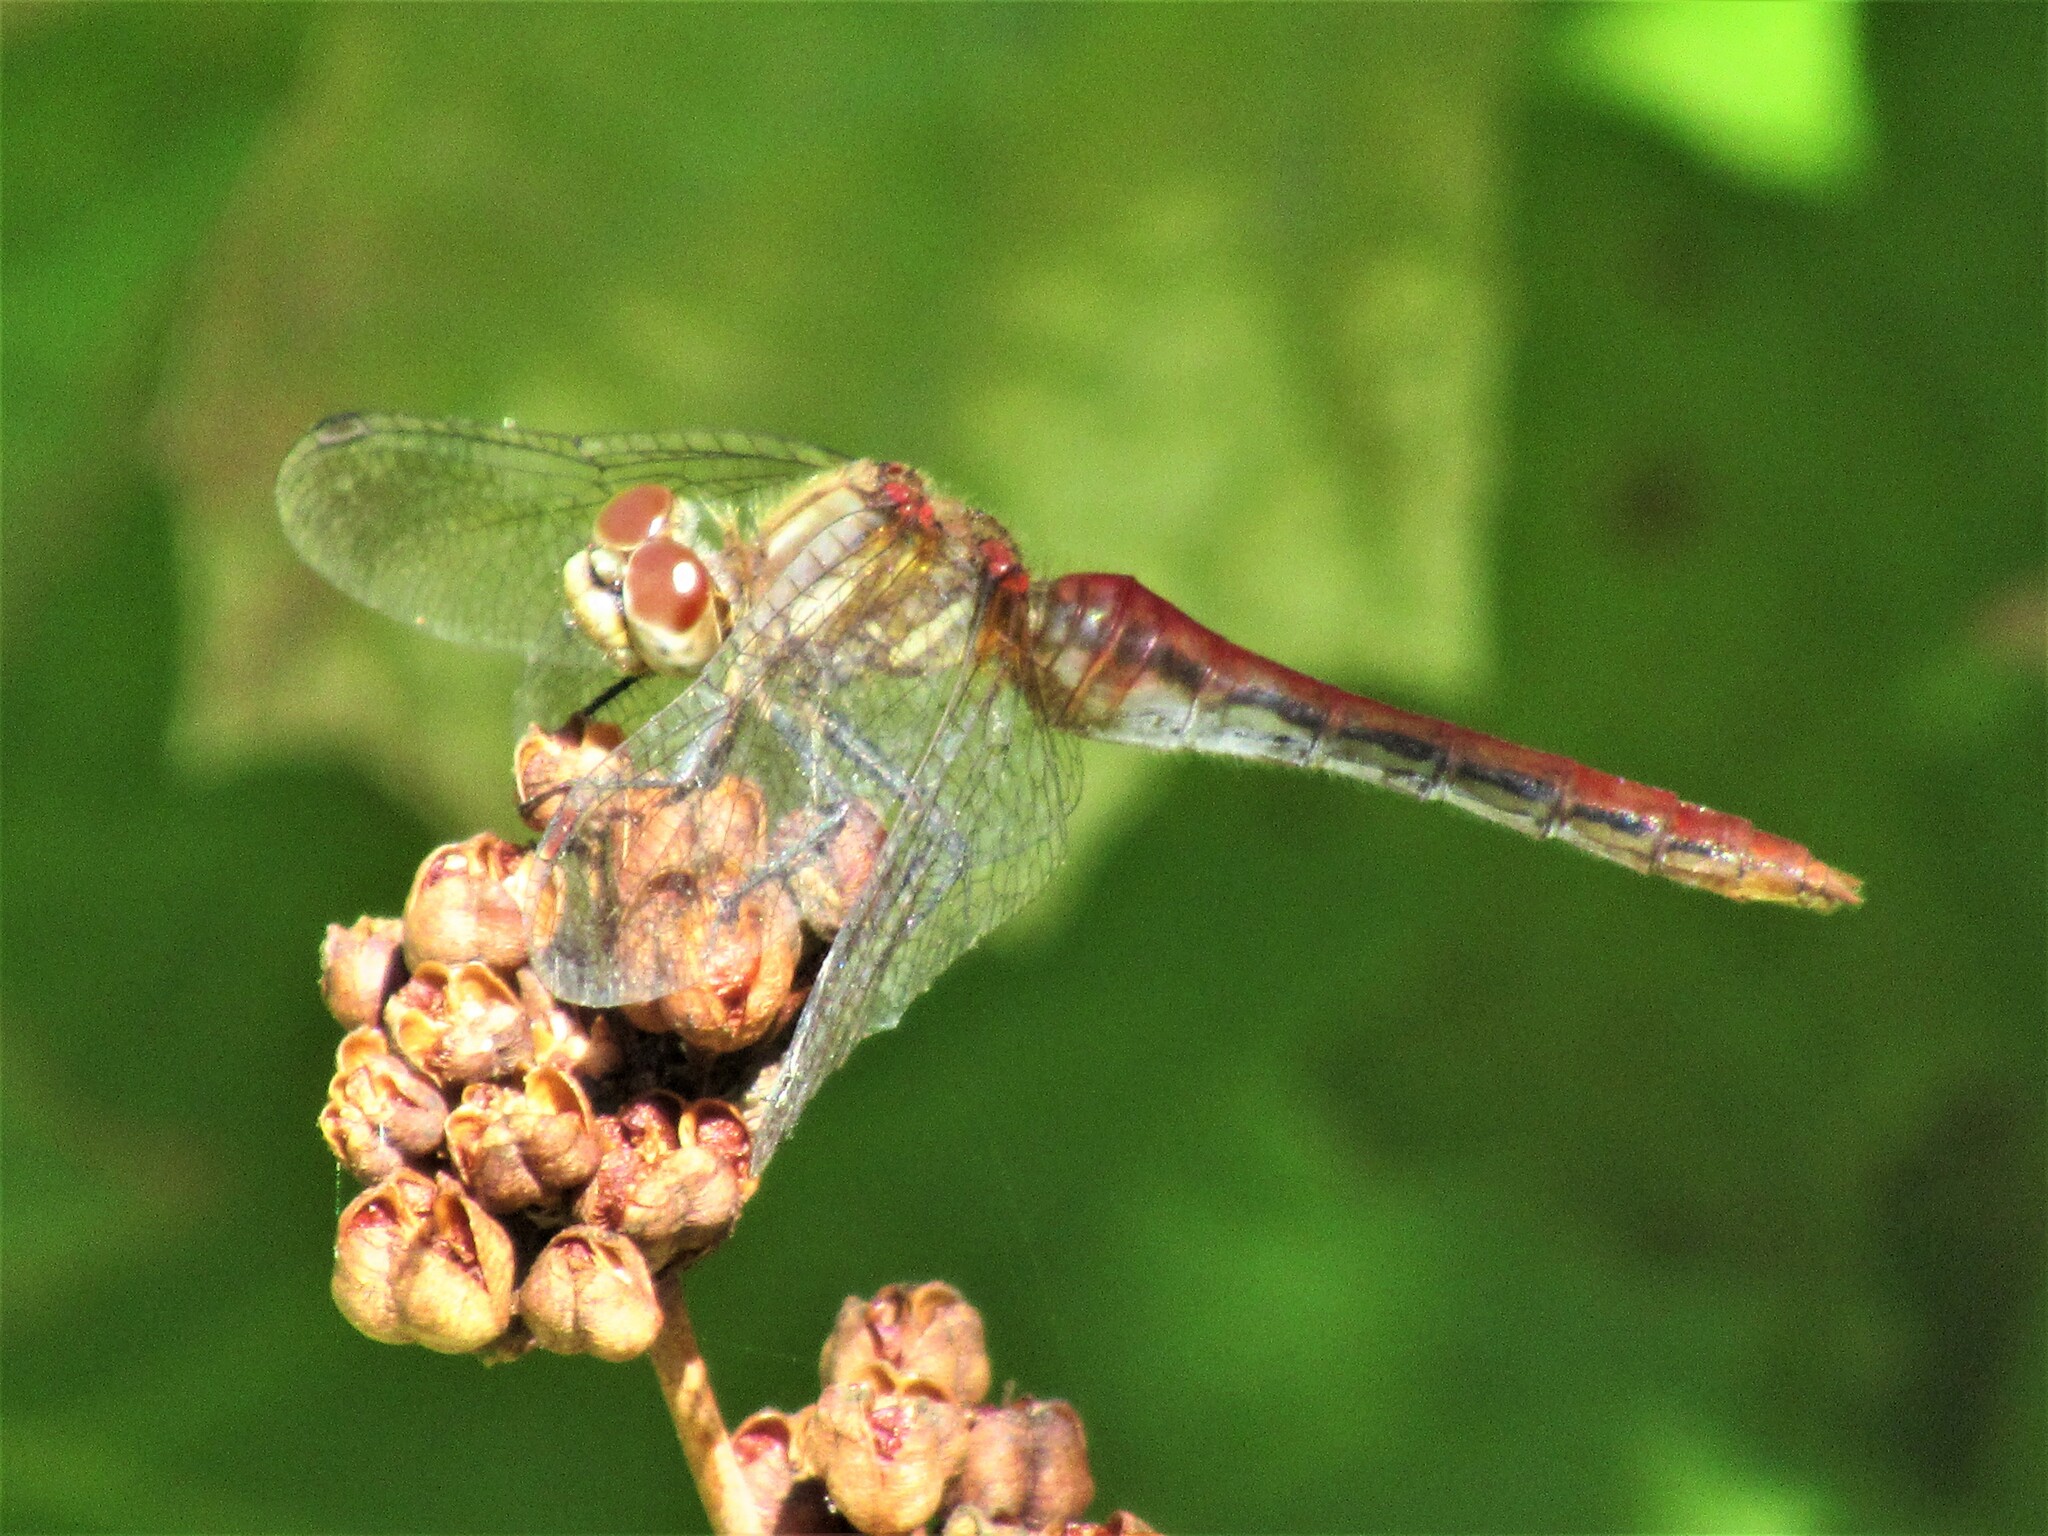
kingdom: Animalia
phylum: Arthropoda
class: Insecta
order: Odonata
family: Libellulidae
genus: Sympetrum
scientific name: Sympetrum pallipes
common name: Striped meadowhawk
